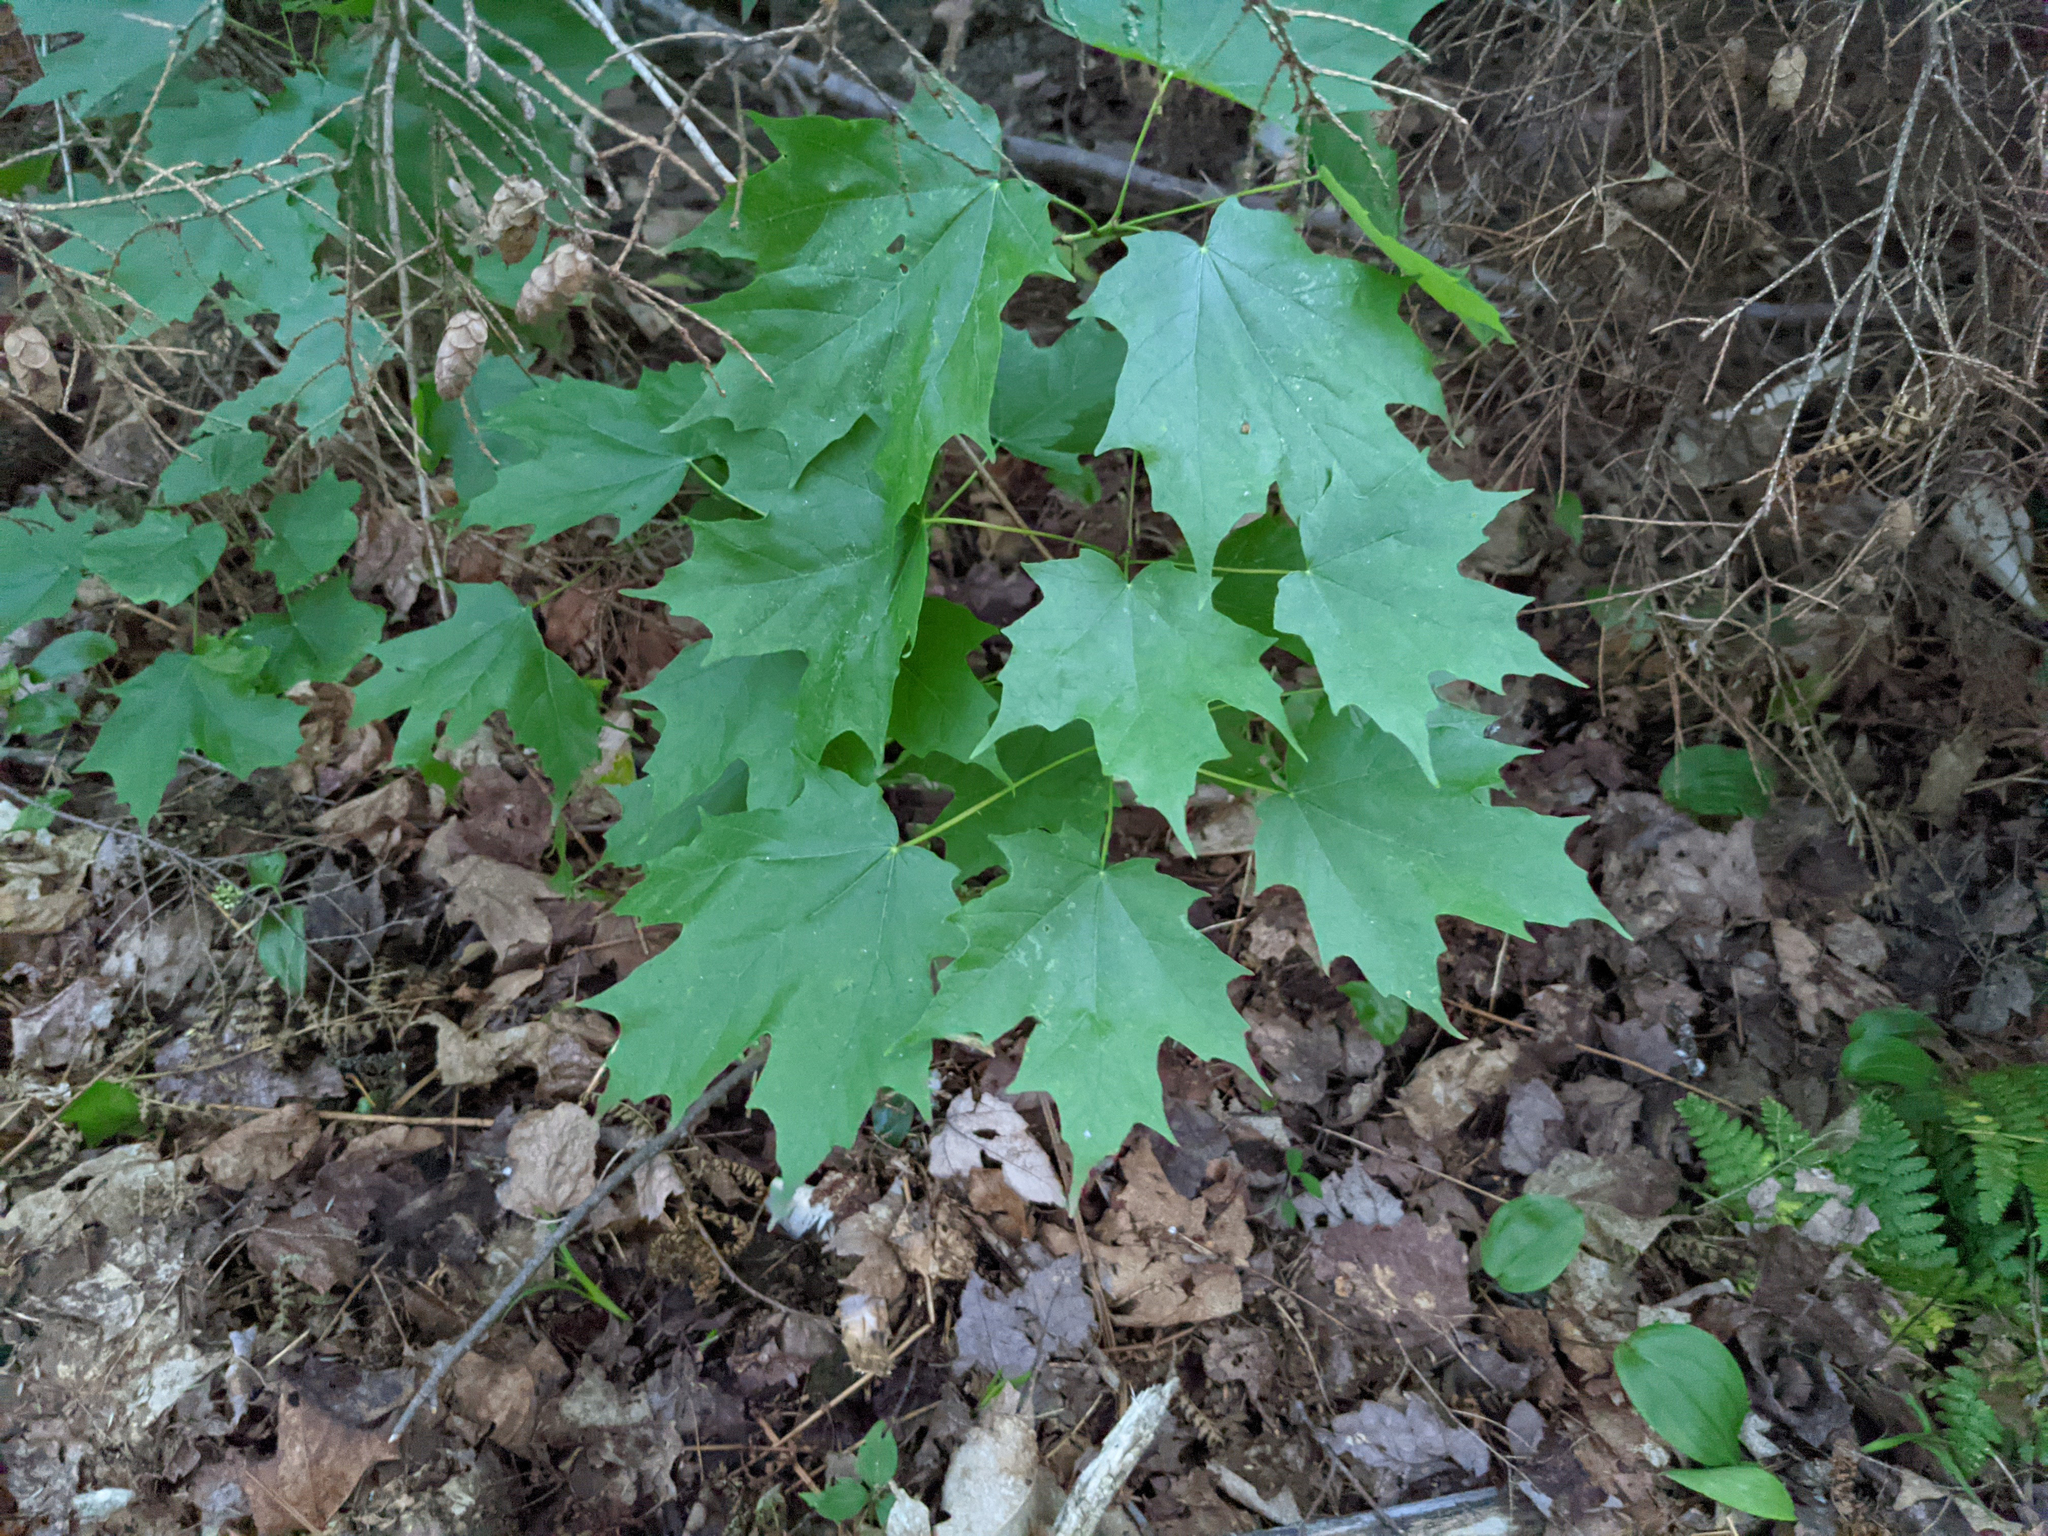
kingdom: Plantae
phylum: Tracheophyta
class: Magnoliopsida
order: Sapindales
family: Sapindaceae
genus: Acer
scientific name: Acer saccharum
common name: Sugar maple
